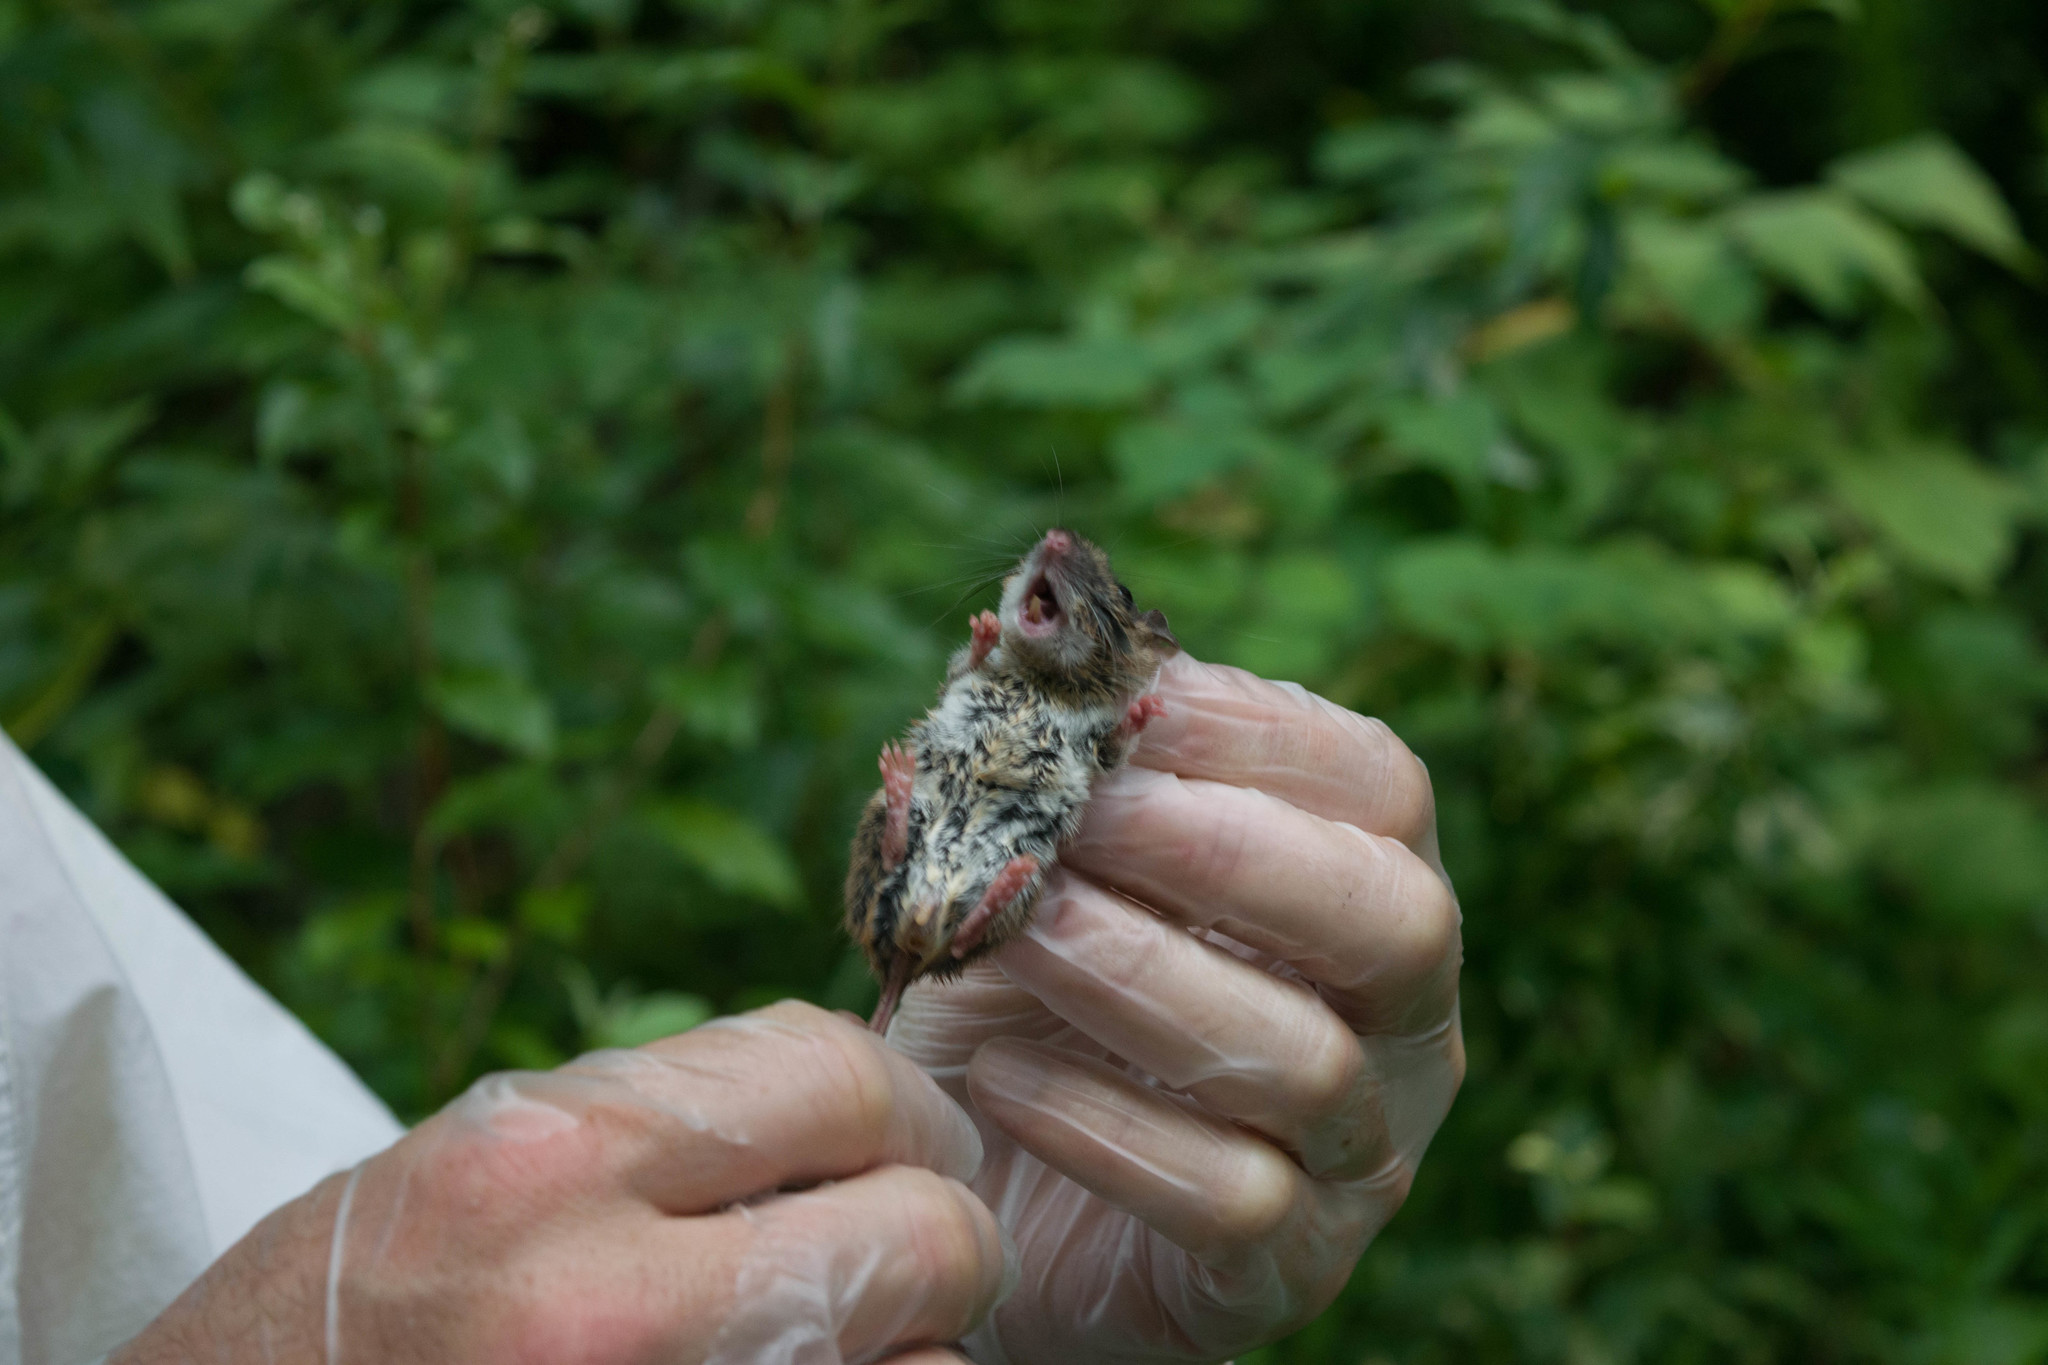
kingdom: Animalia
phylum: Chordata
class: Mammalia
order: Rodentia
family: Cricetidae
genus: Peromyscus
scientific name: Peromyscus
